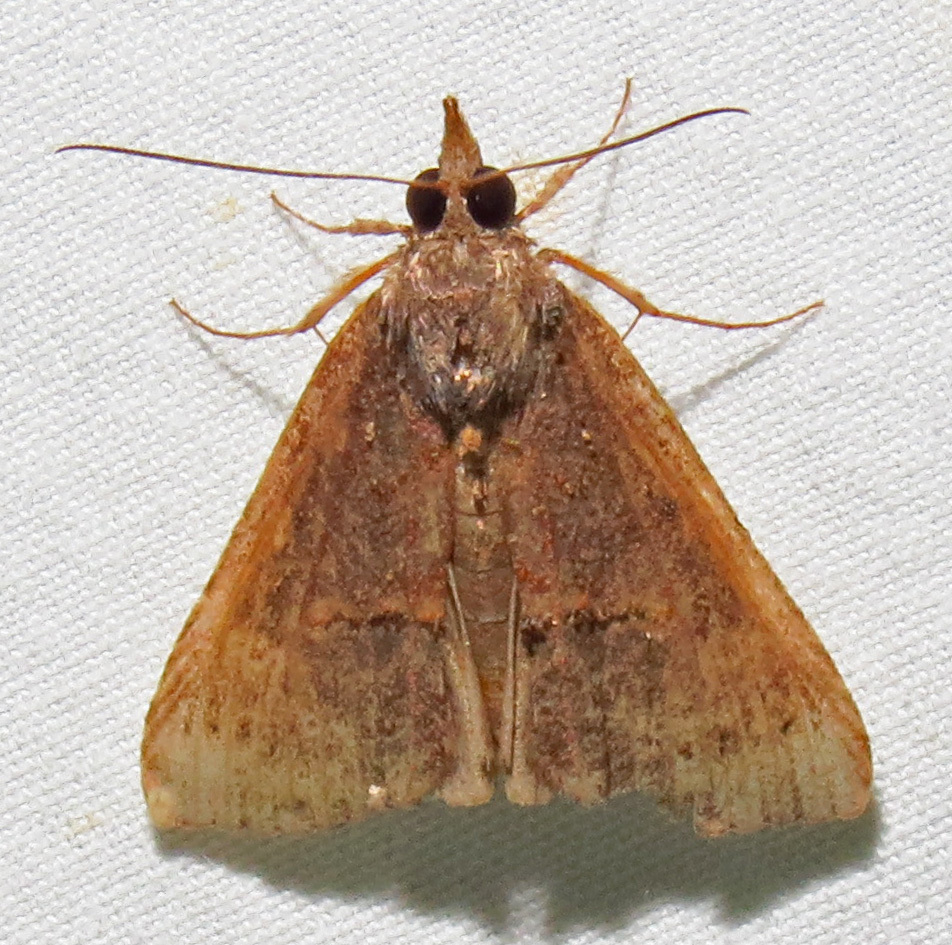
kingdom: Animalia
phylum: Arthropoda
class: Insecta
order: Lepidoptera
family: Erebidae
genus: Hypena
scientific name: Hypena scabra
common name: Green cloverworm
